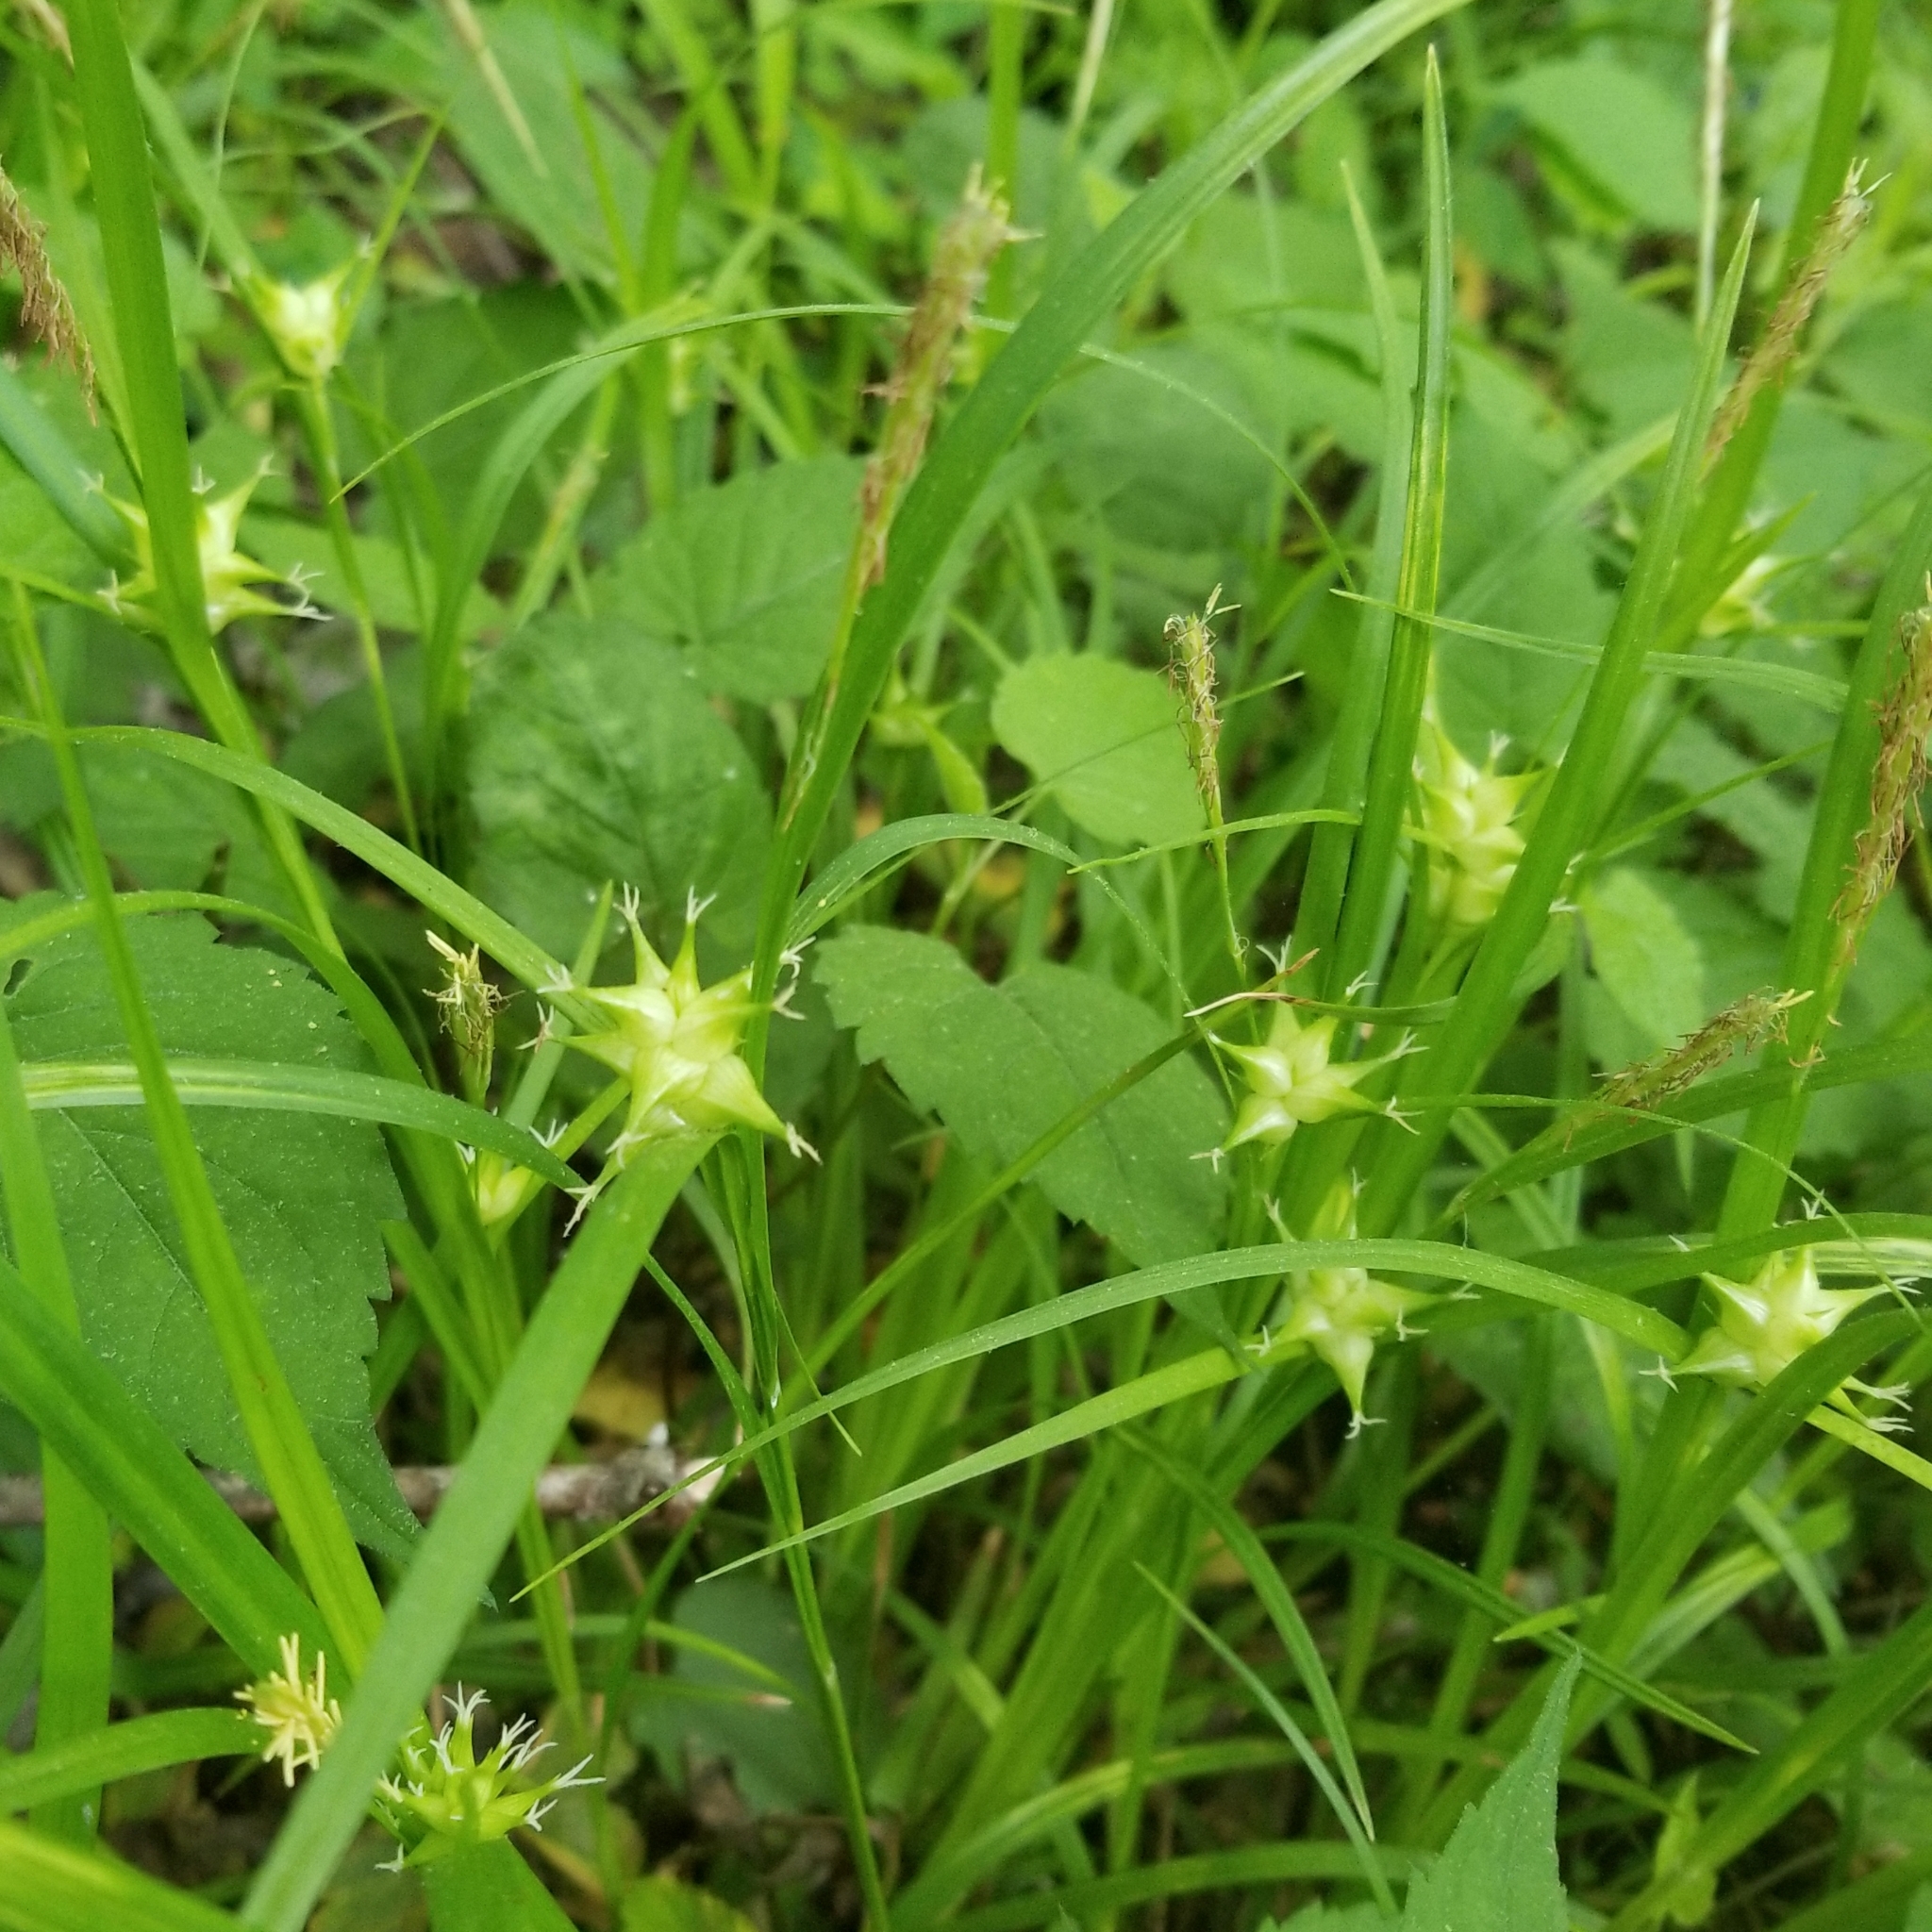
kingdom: Plantae
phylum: Tracheophyta
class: Liliopsida
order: Poales
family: Cyperaceae
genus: Carex
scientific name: Carex intumescens
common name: Greater bladder sedge
